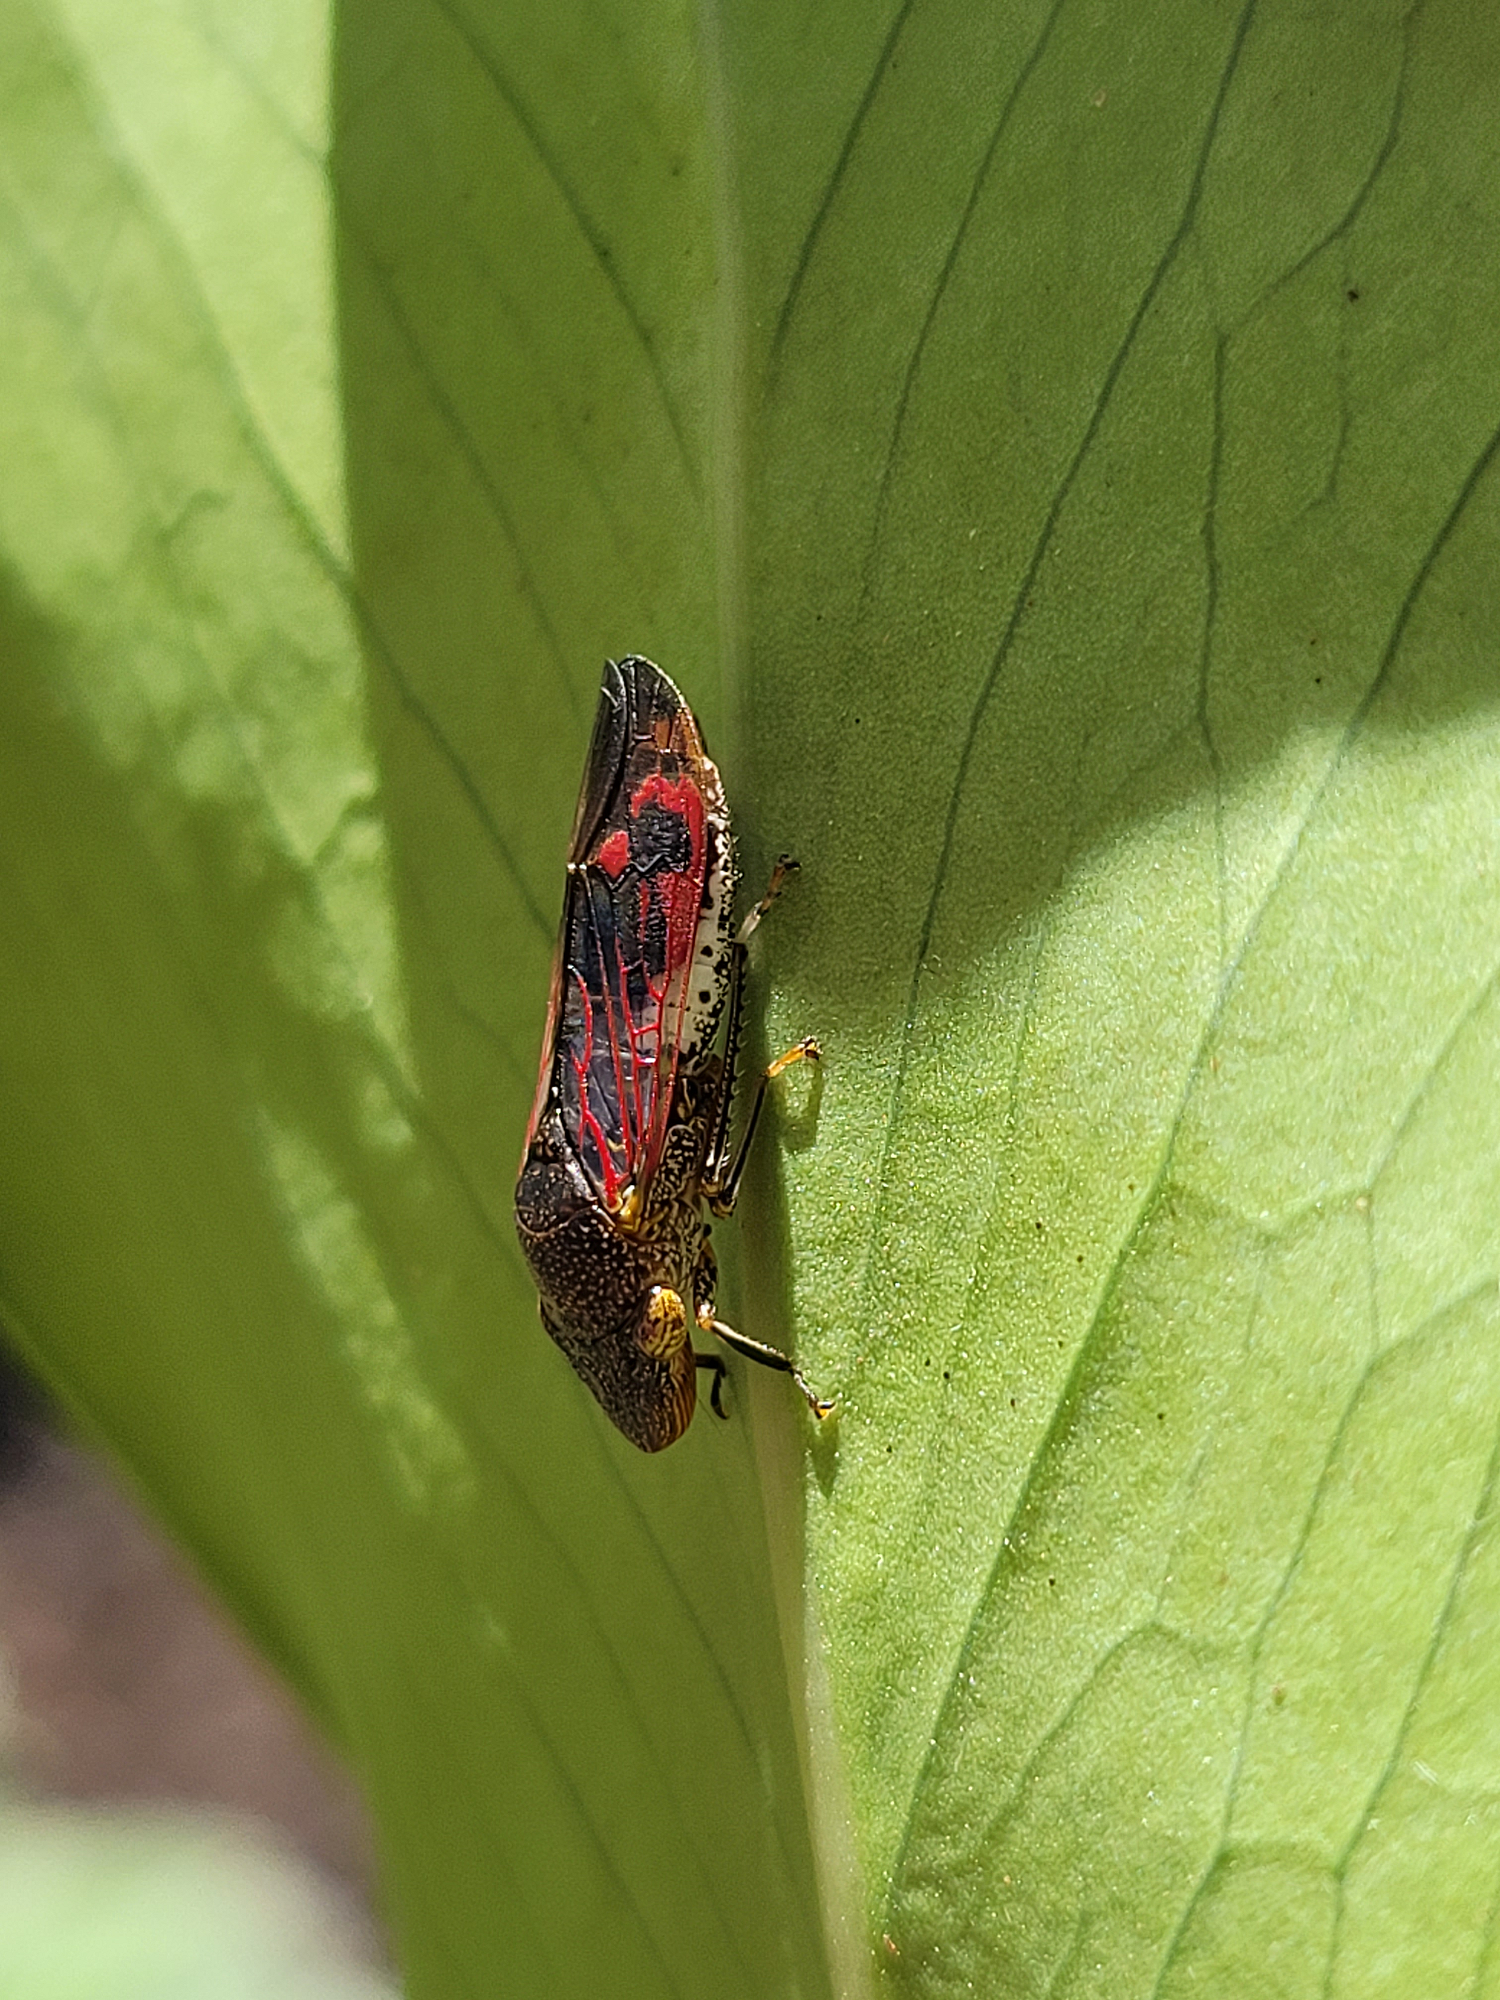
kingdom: Animalia
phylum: Arthropoda
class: Insecta
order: Hemiptera
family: Cicadellidae
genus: Homalodisca
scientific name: Homalodisca vitripennis
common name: Glassy-winged sharpshooter
